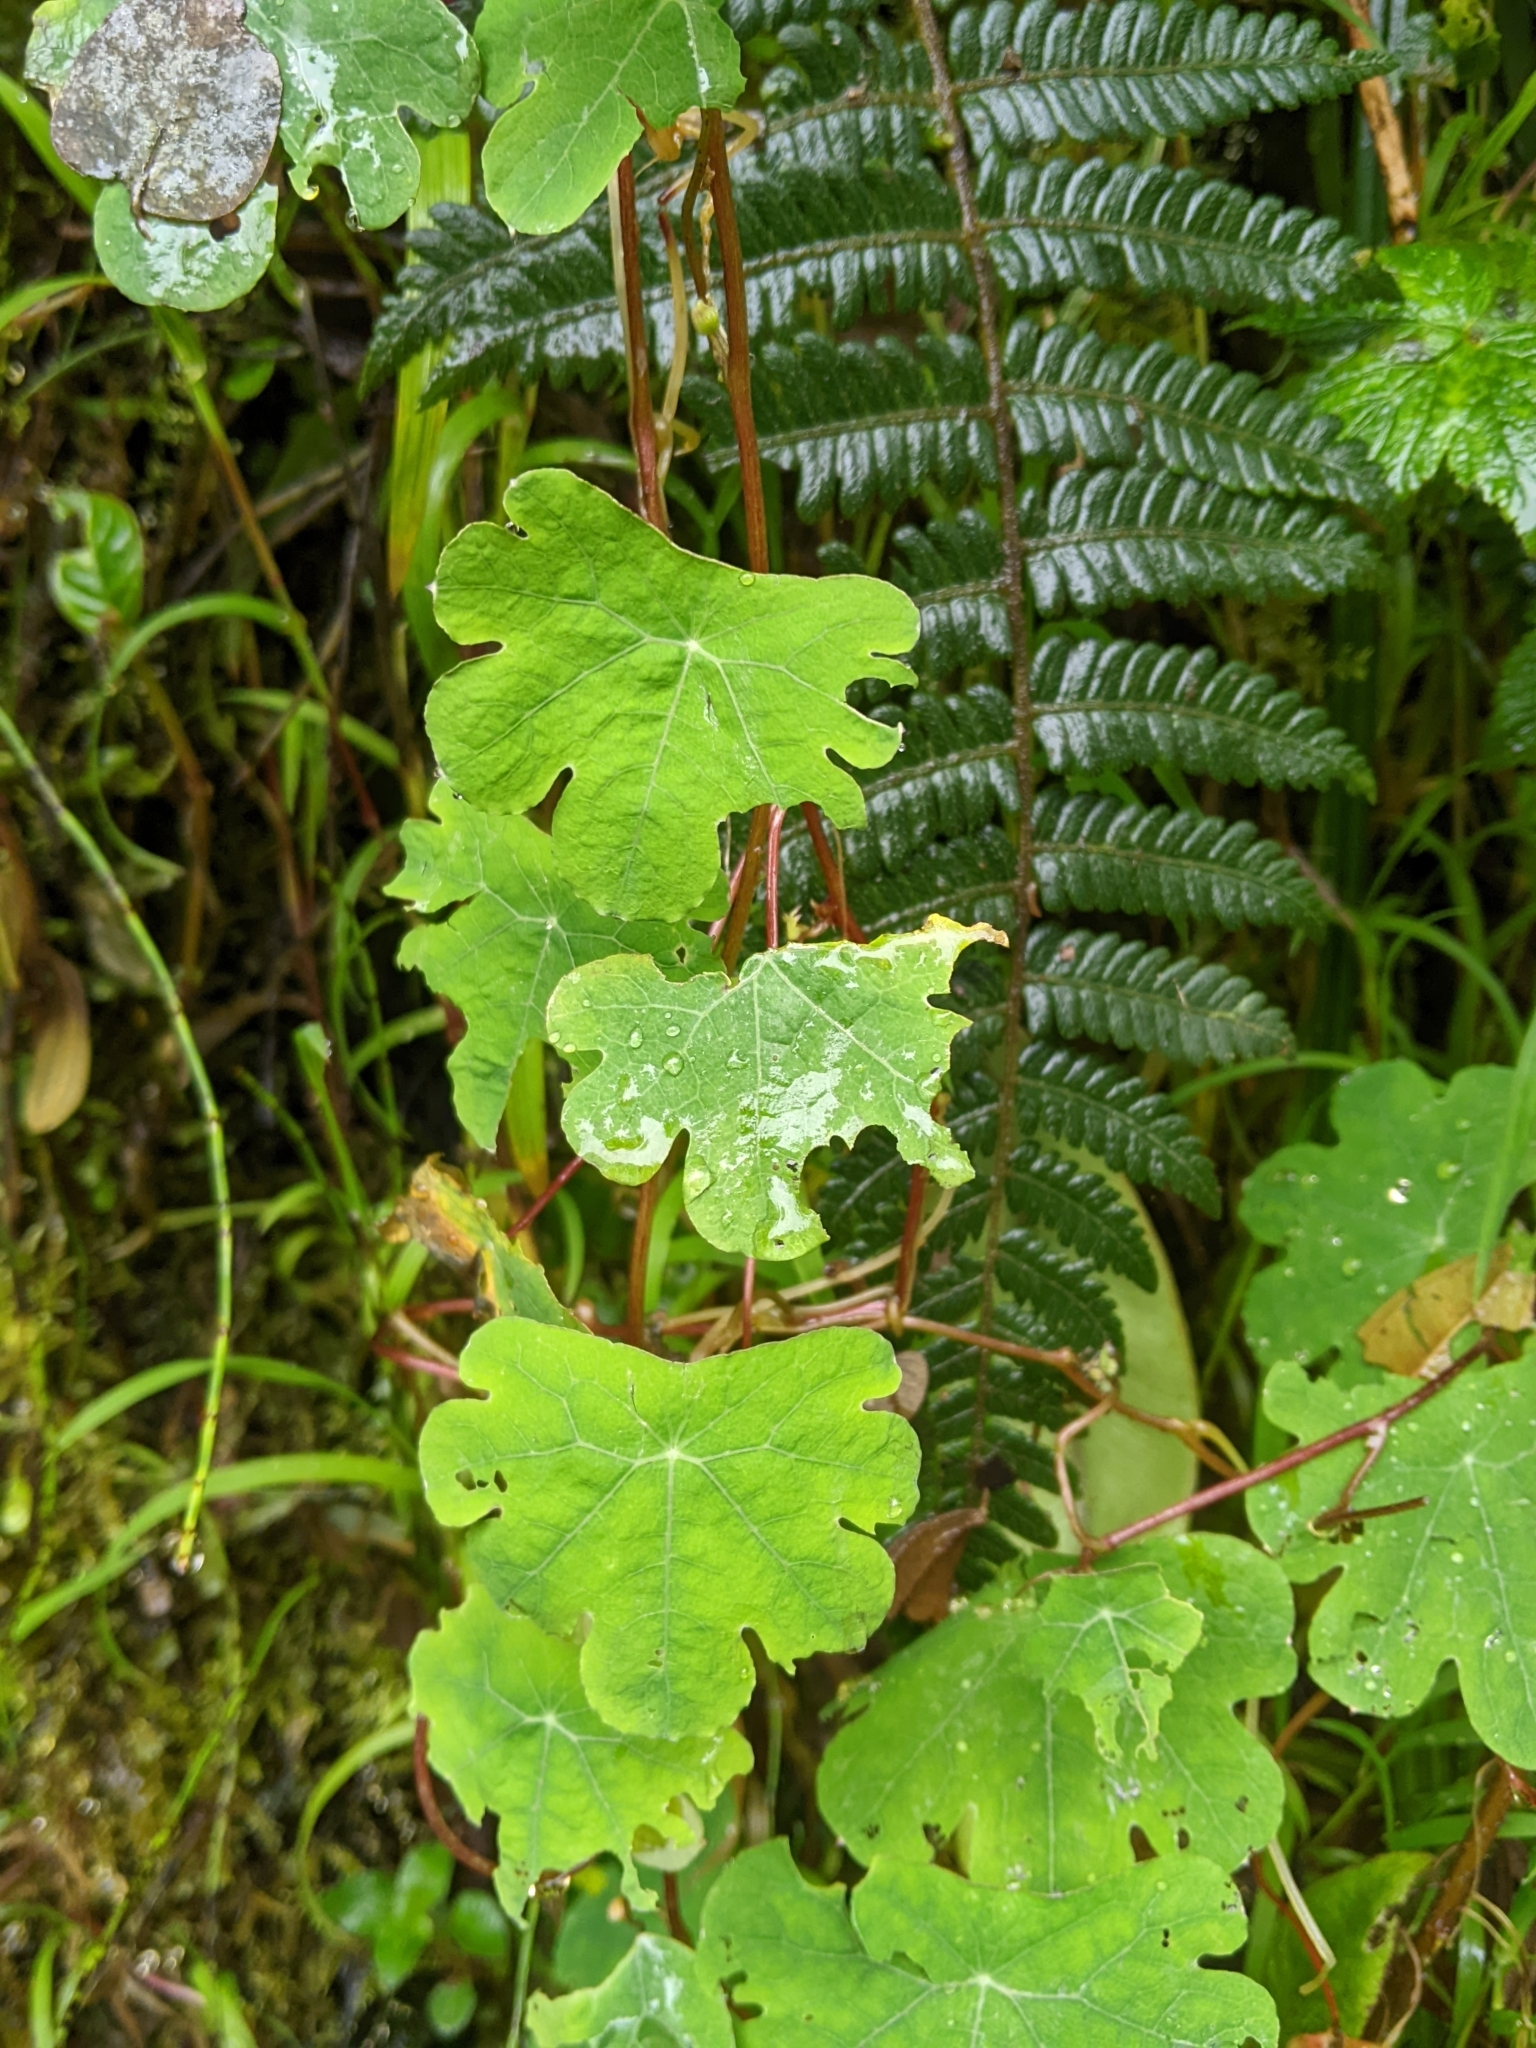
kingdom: Plantae
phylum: Tracheophyta
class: Magnoliopsida
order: Brassicales
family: Tropaeolaceae
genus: Tropaeolum
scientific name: Tropaeolum tuberosum
